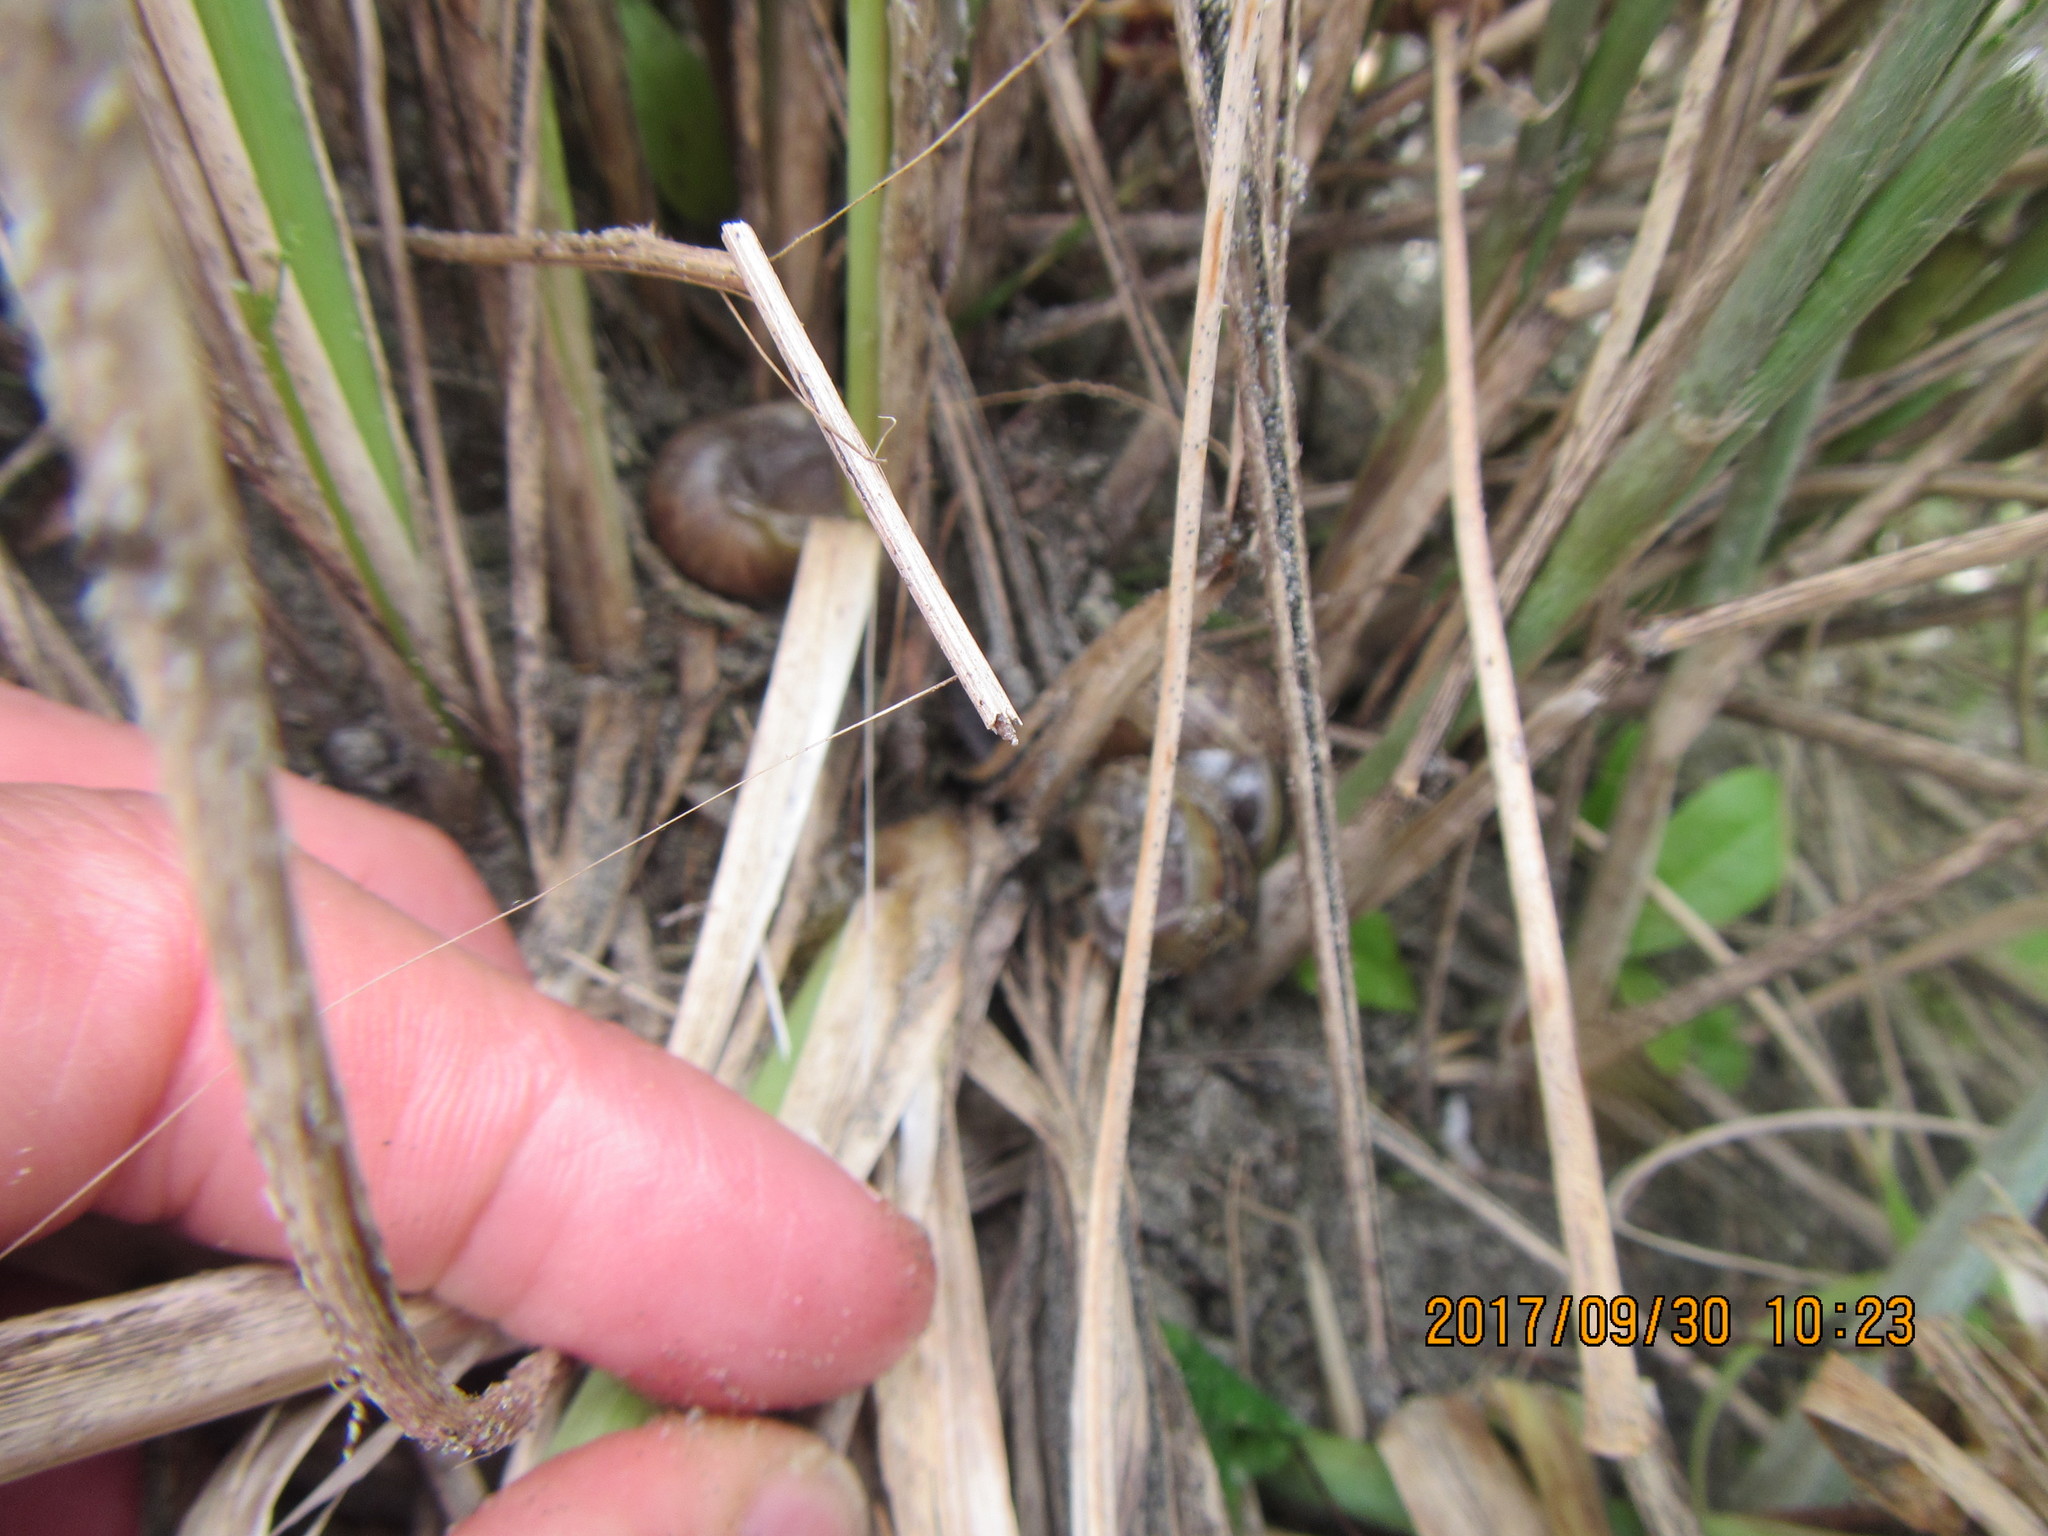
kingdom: Animalia
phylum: Mollusca
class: Gastropoda
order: Stylommatophora
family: Helicidae
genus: Cornu
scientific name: Cornu aspersum
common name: Brown garden snail
